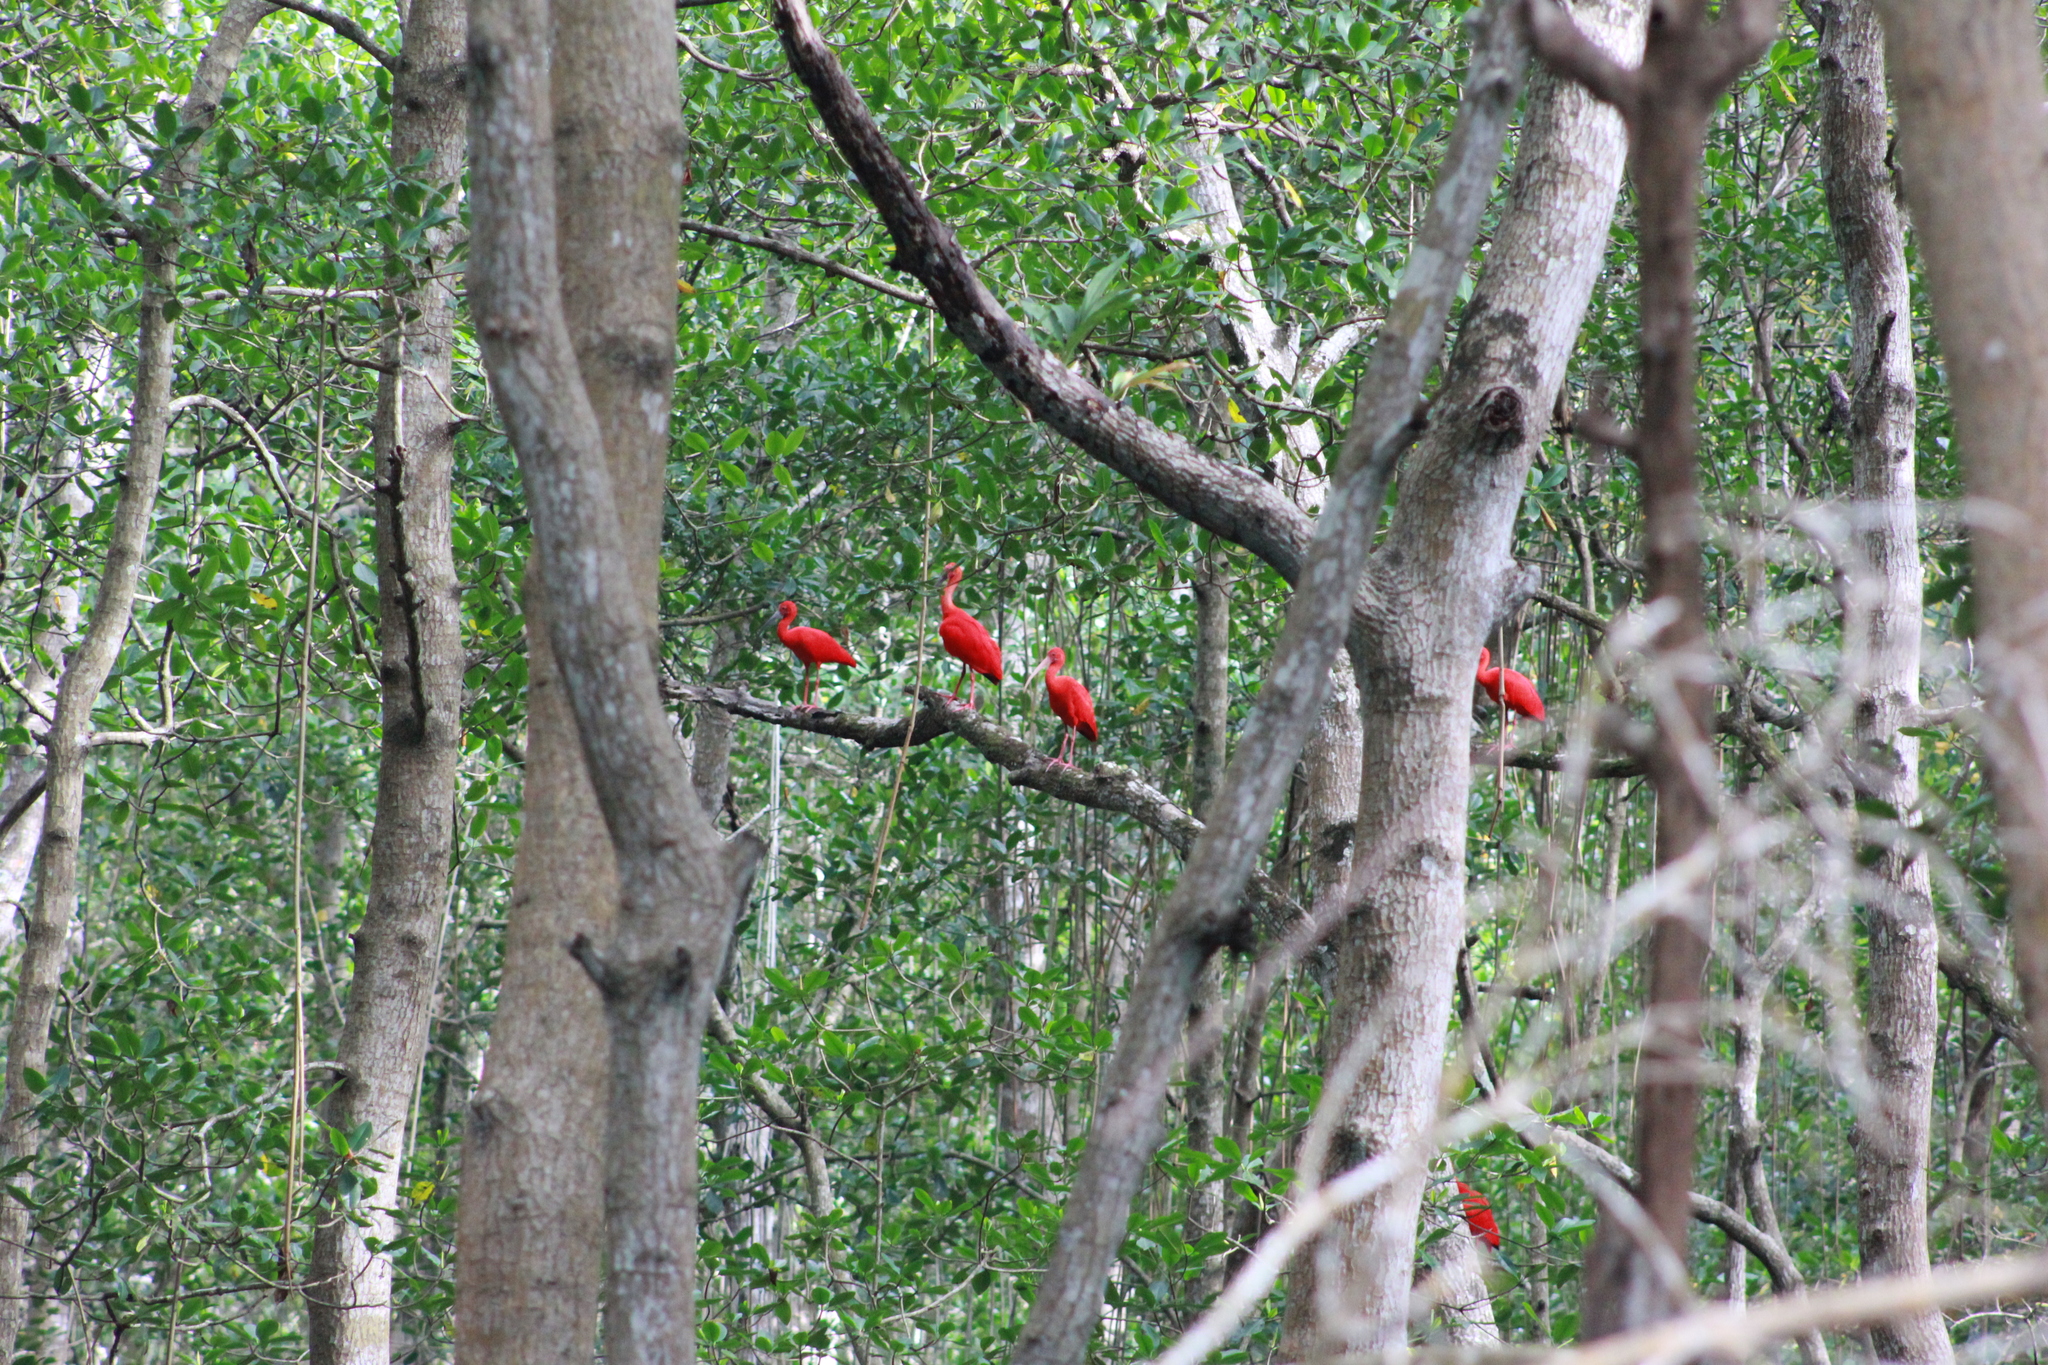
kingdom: Animalia
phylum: Chordata
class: Aves
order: Pelecaniformes
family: Threskiornithidae
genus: Eudocimus
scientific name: Eudocimus ruber
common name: Scarlet ibis
